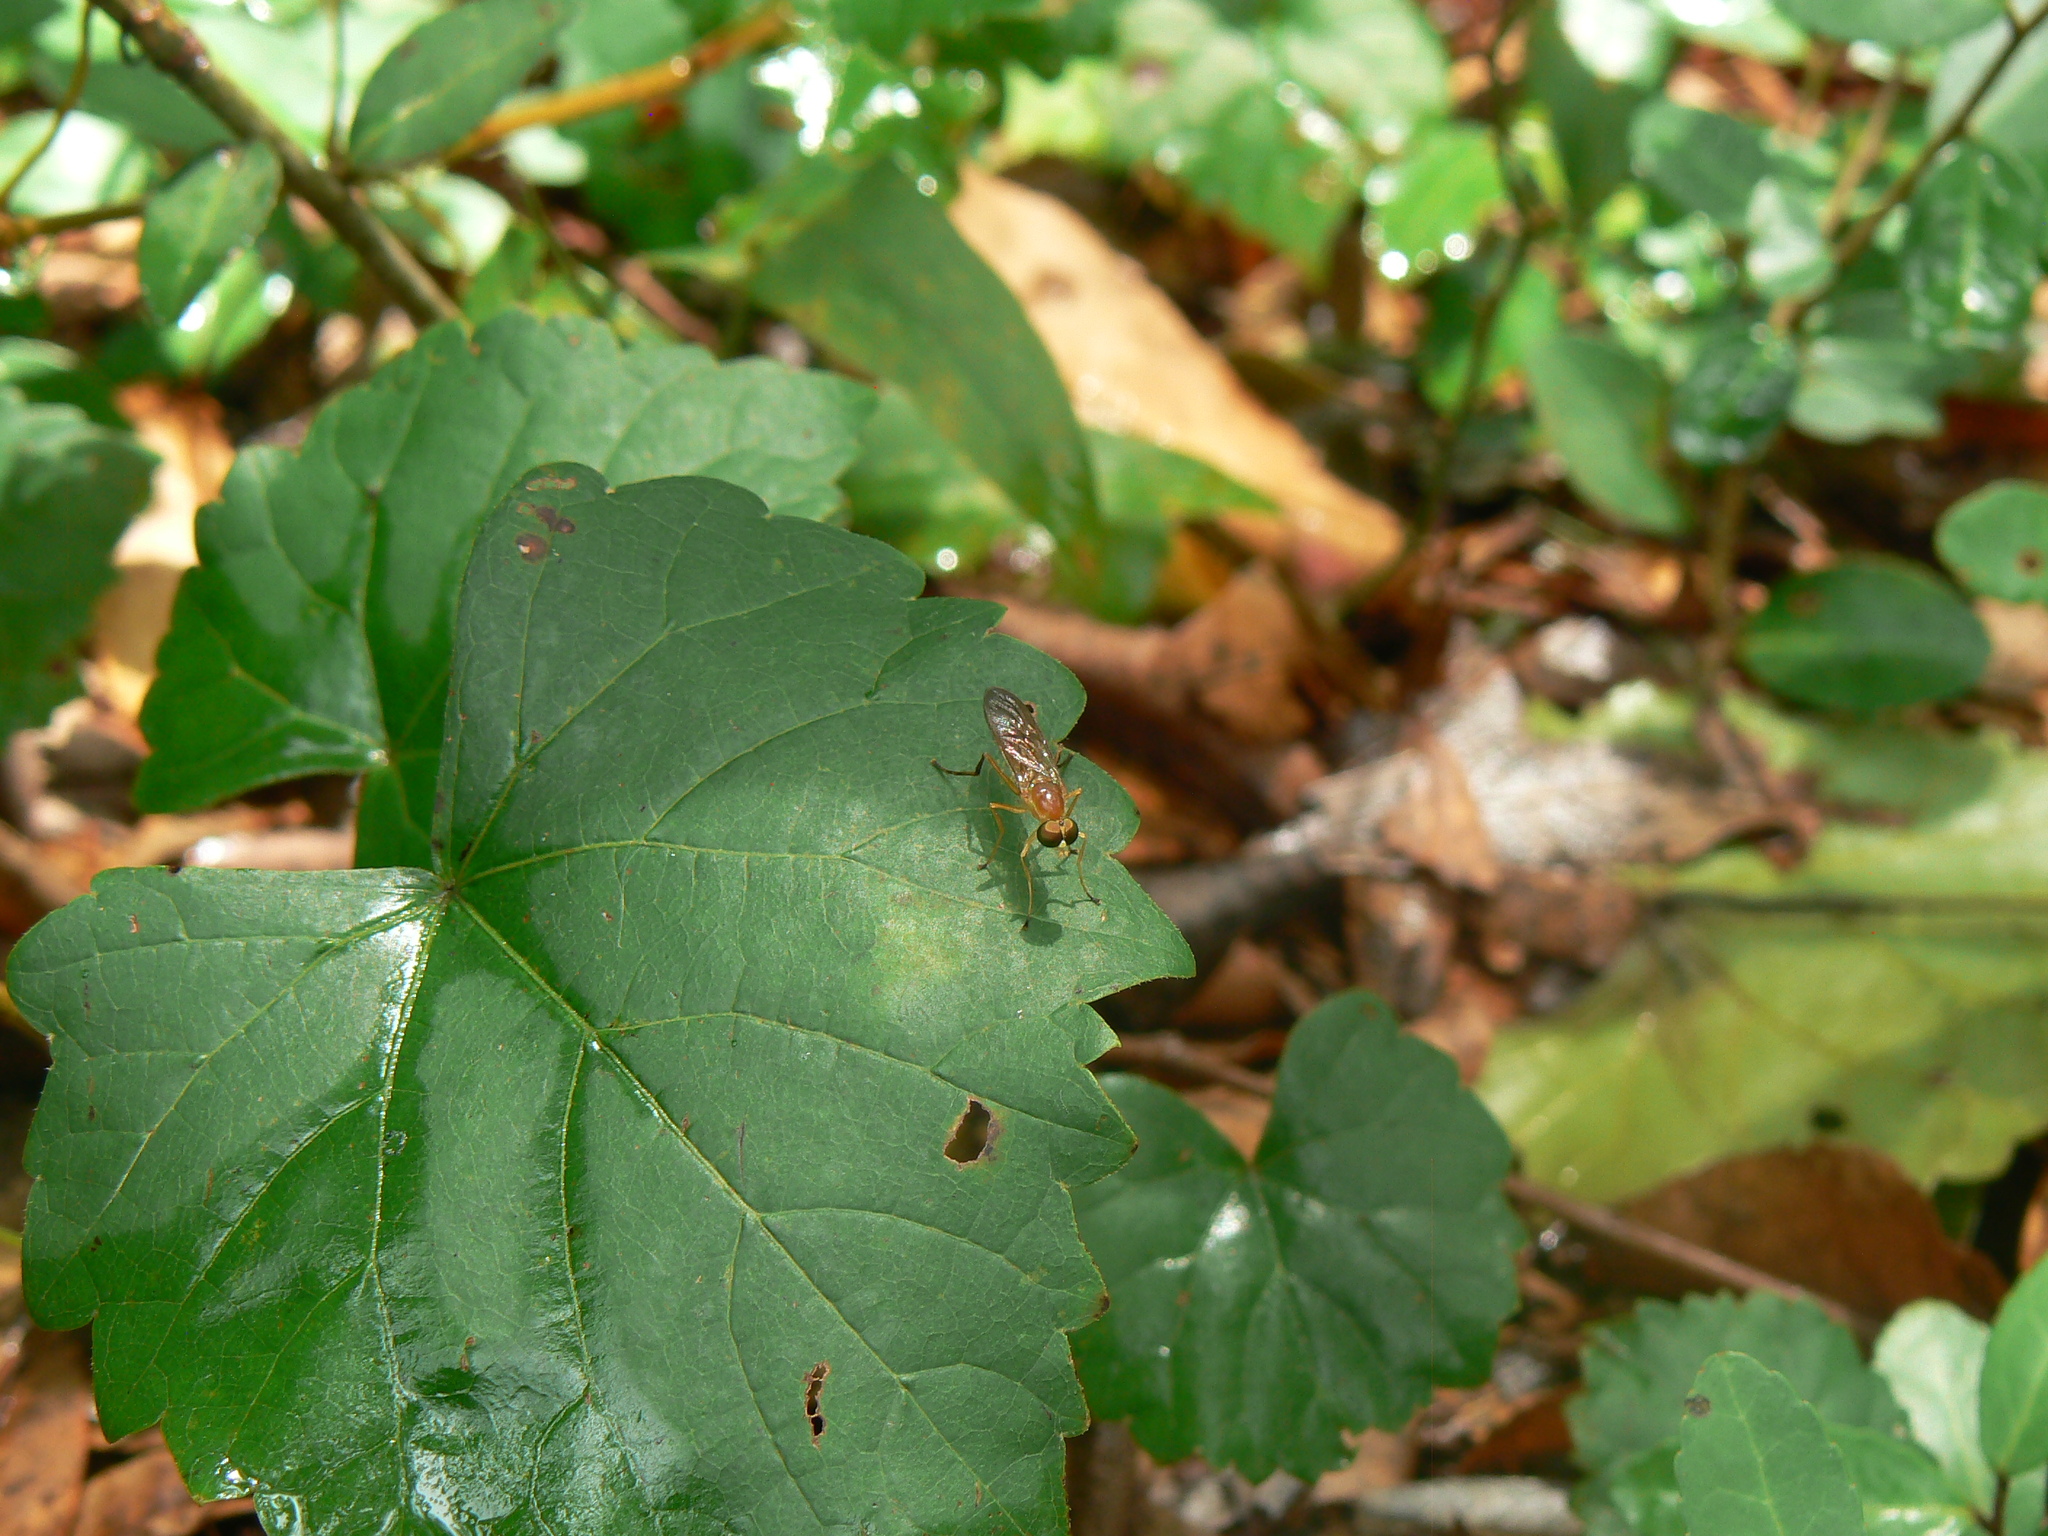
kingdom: Animalia
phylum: Arthropoda
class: Insecta
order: Diptera
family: Stratiomyidae
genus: Ptecticus
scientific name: Ptecticus trivittatus
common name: Compost fly
